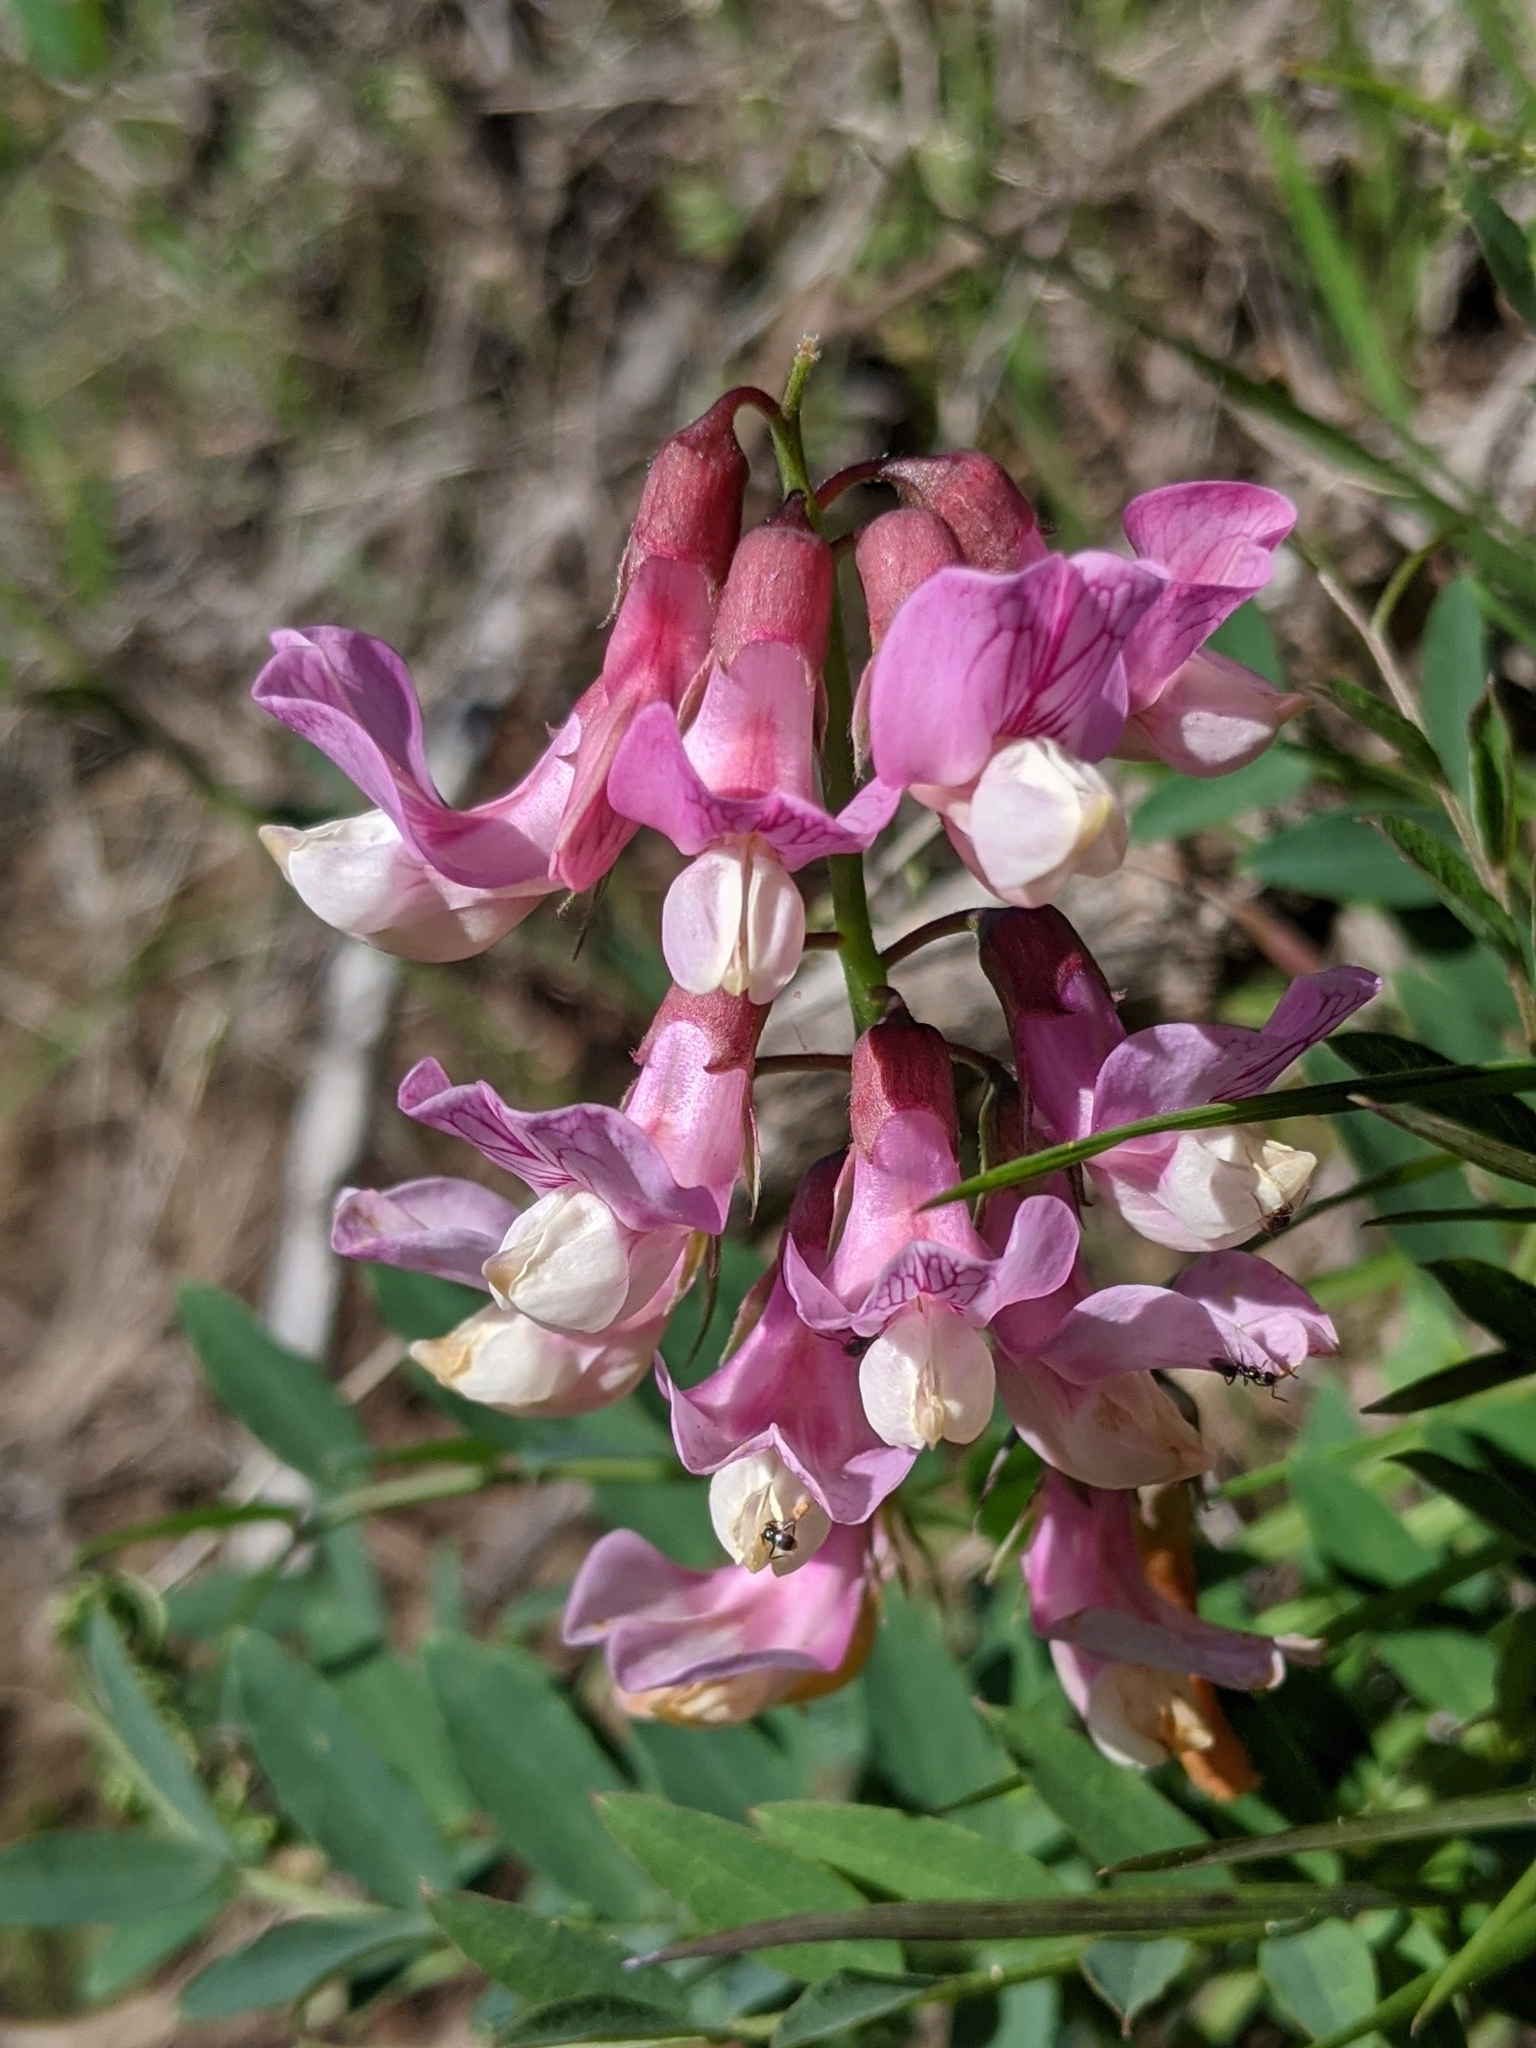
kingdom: Plantae
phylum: Tracheophyta
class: Magnoliopsida
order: Fabales
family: Fabaceae
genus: Lathyrus
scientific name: Lathyrus vestitus
